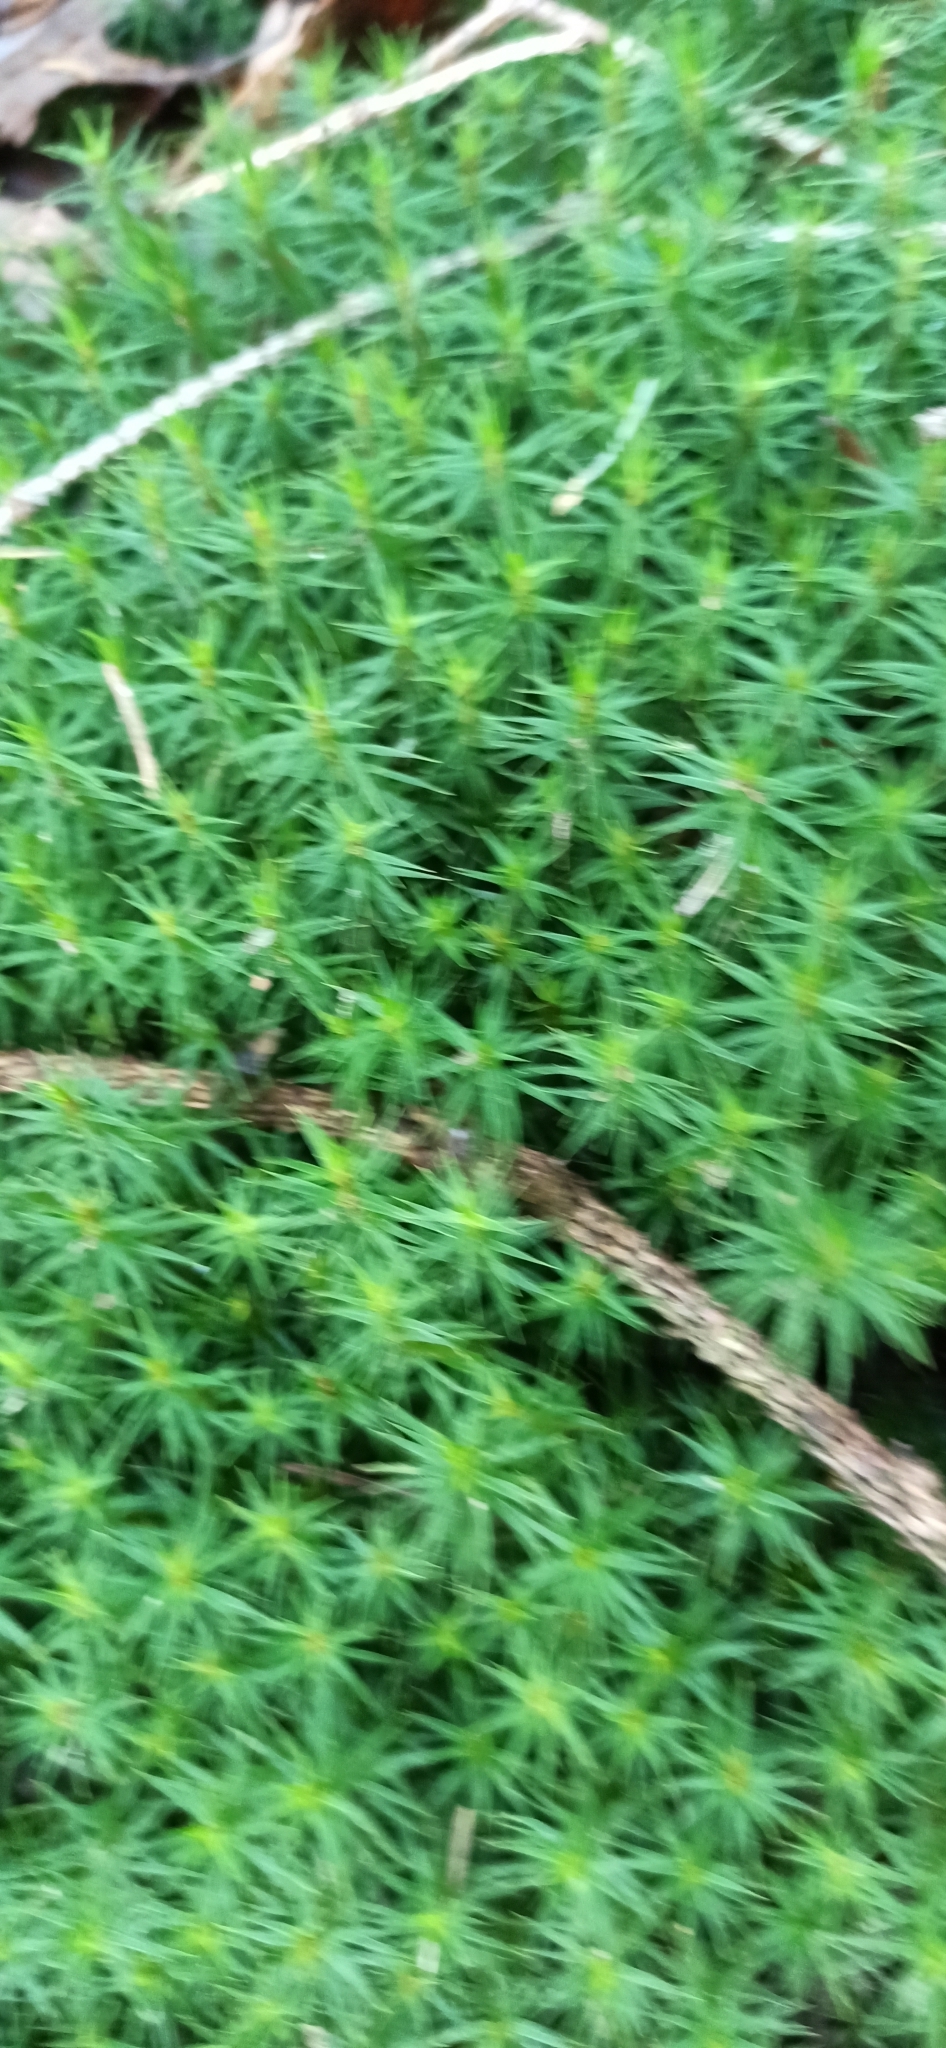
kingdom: Plantae
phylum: Bryophyta
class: Polytrichopsida
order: Polytrichales
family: Polytrichaceae
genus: Polytrichum
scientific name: Polytrichum formosum
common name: Bank haircap moss
